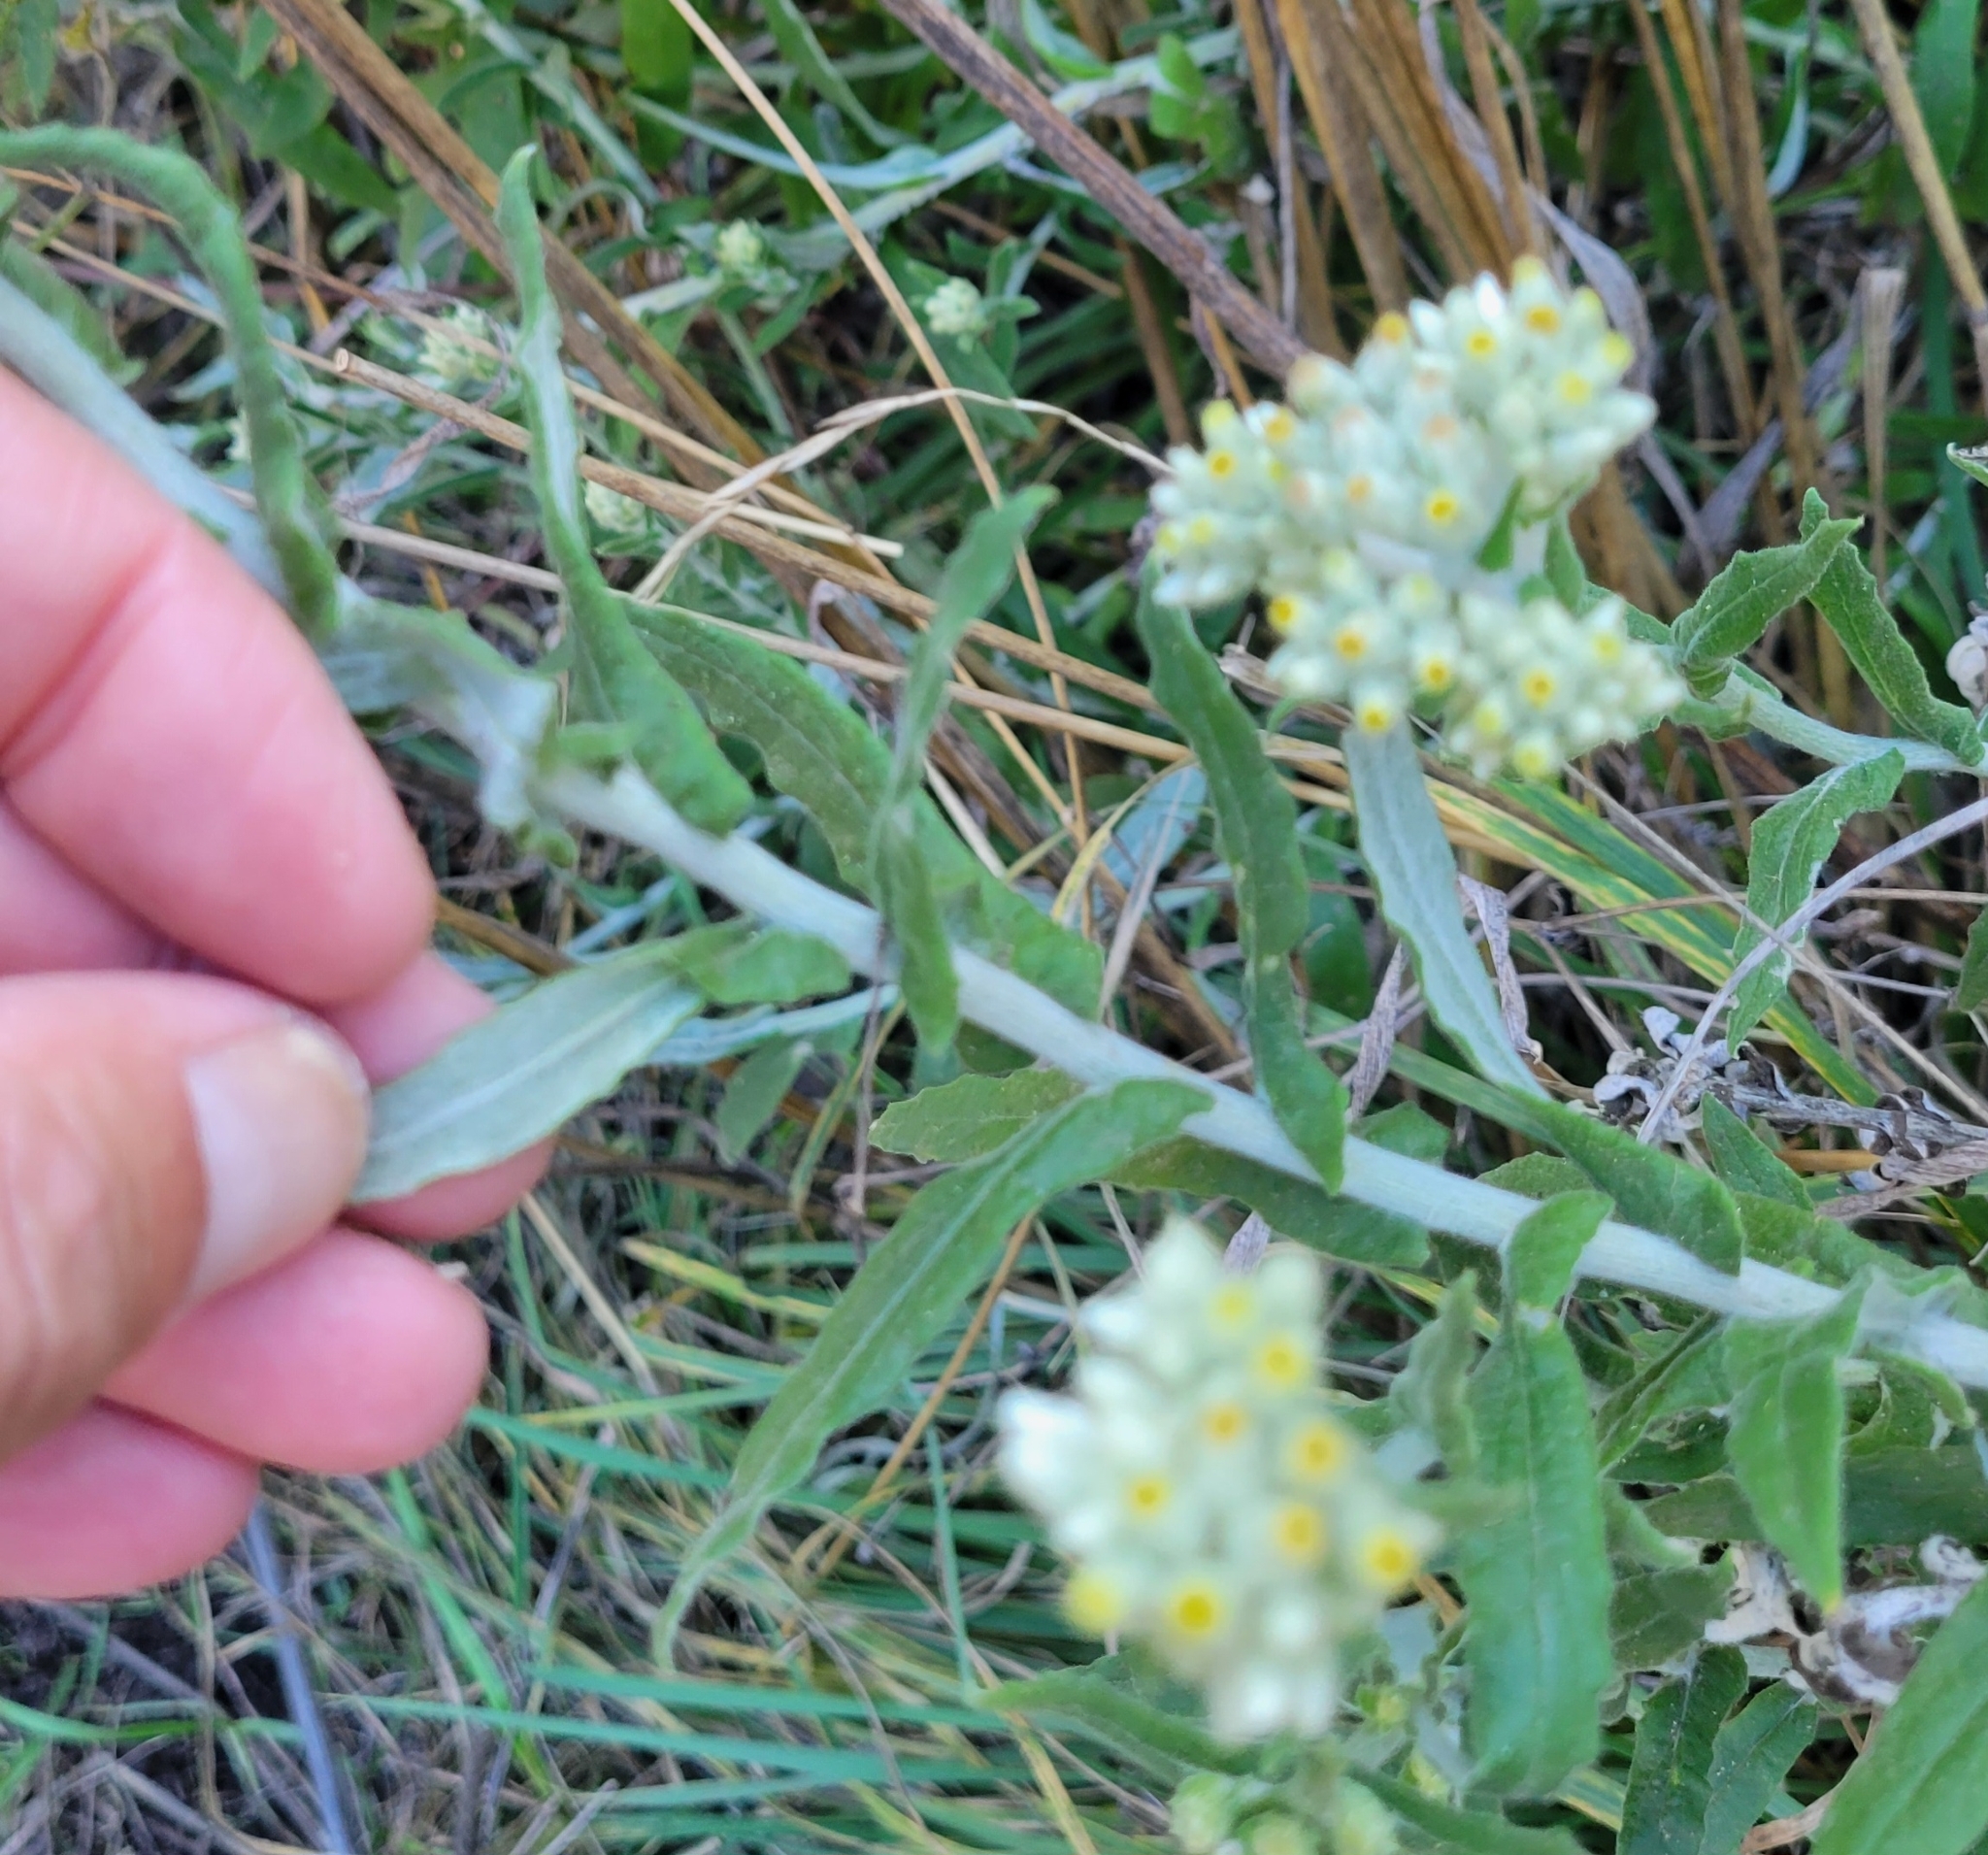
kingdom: Plantae
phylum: Tracheophyta
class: Magnoliopsida
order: Asterales
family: Asteraceae
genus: Pseudognaphalium
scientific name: Pseudognaphalium biolettii
